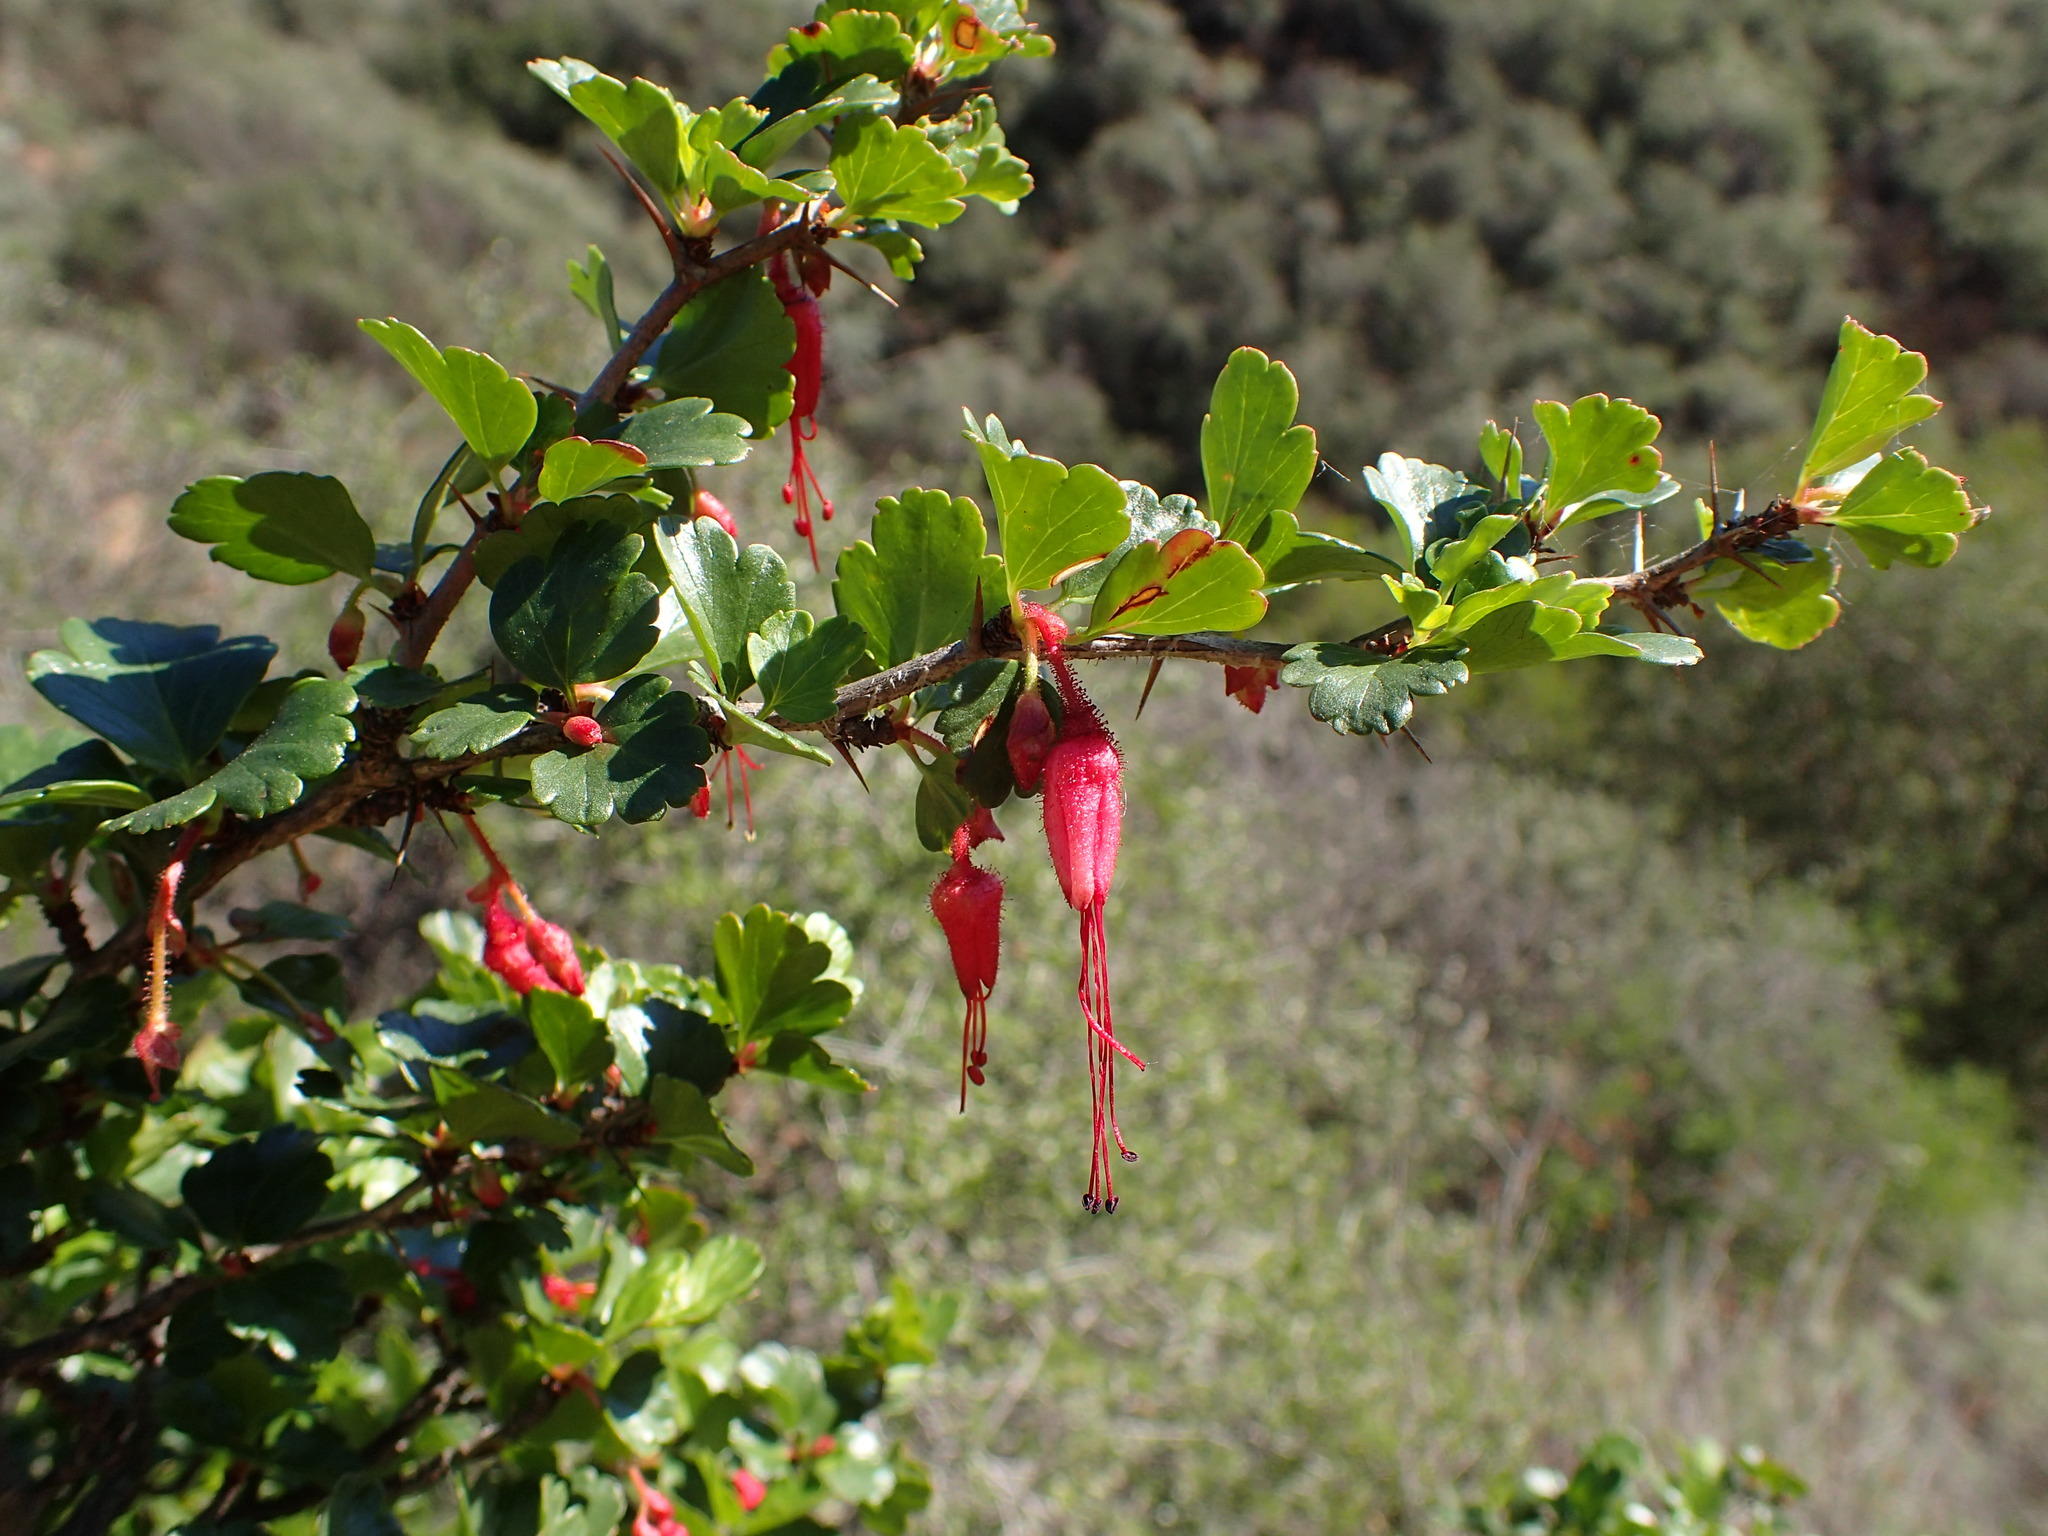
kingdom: Plantae
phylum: Tracheophyta
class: Magnoliopsida
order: Saxifragales
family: Grossulariaceae
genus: Ribes
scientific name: Ribes speciosum
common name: Fuchsia-flower gooseberry
